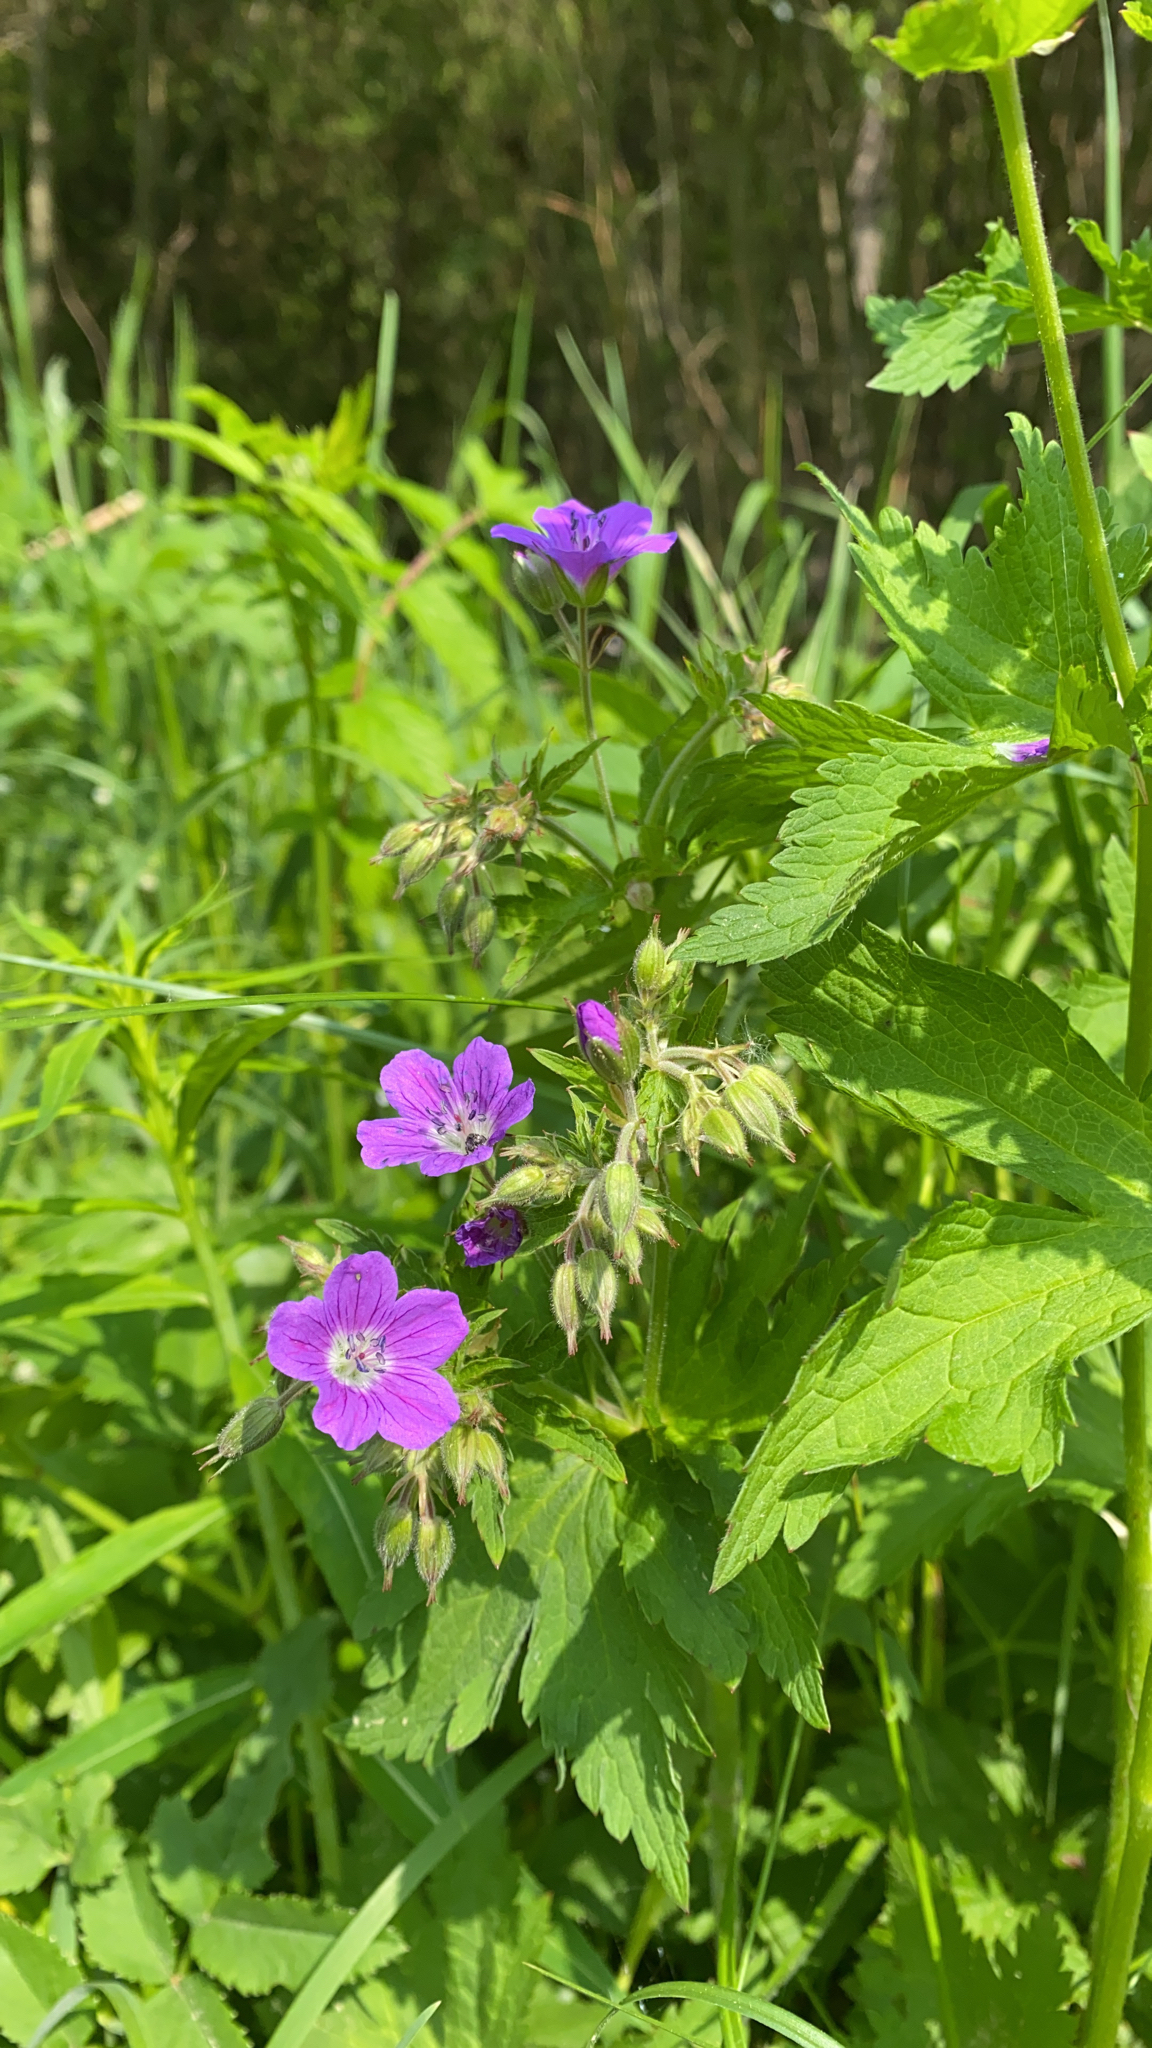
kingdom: Plantae
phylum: Tracheophyta
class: Magnoliopsida
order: Geraniales
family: Geraniaceae
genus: Geranium
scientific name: Geranium sylvaticum
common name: Wood crane's-bill
